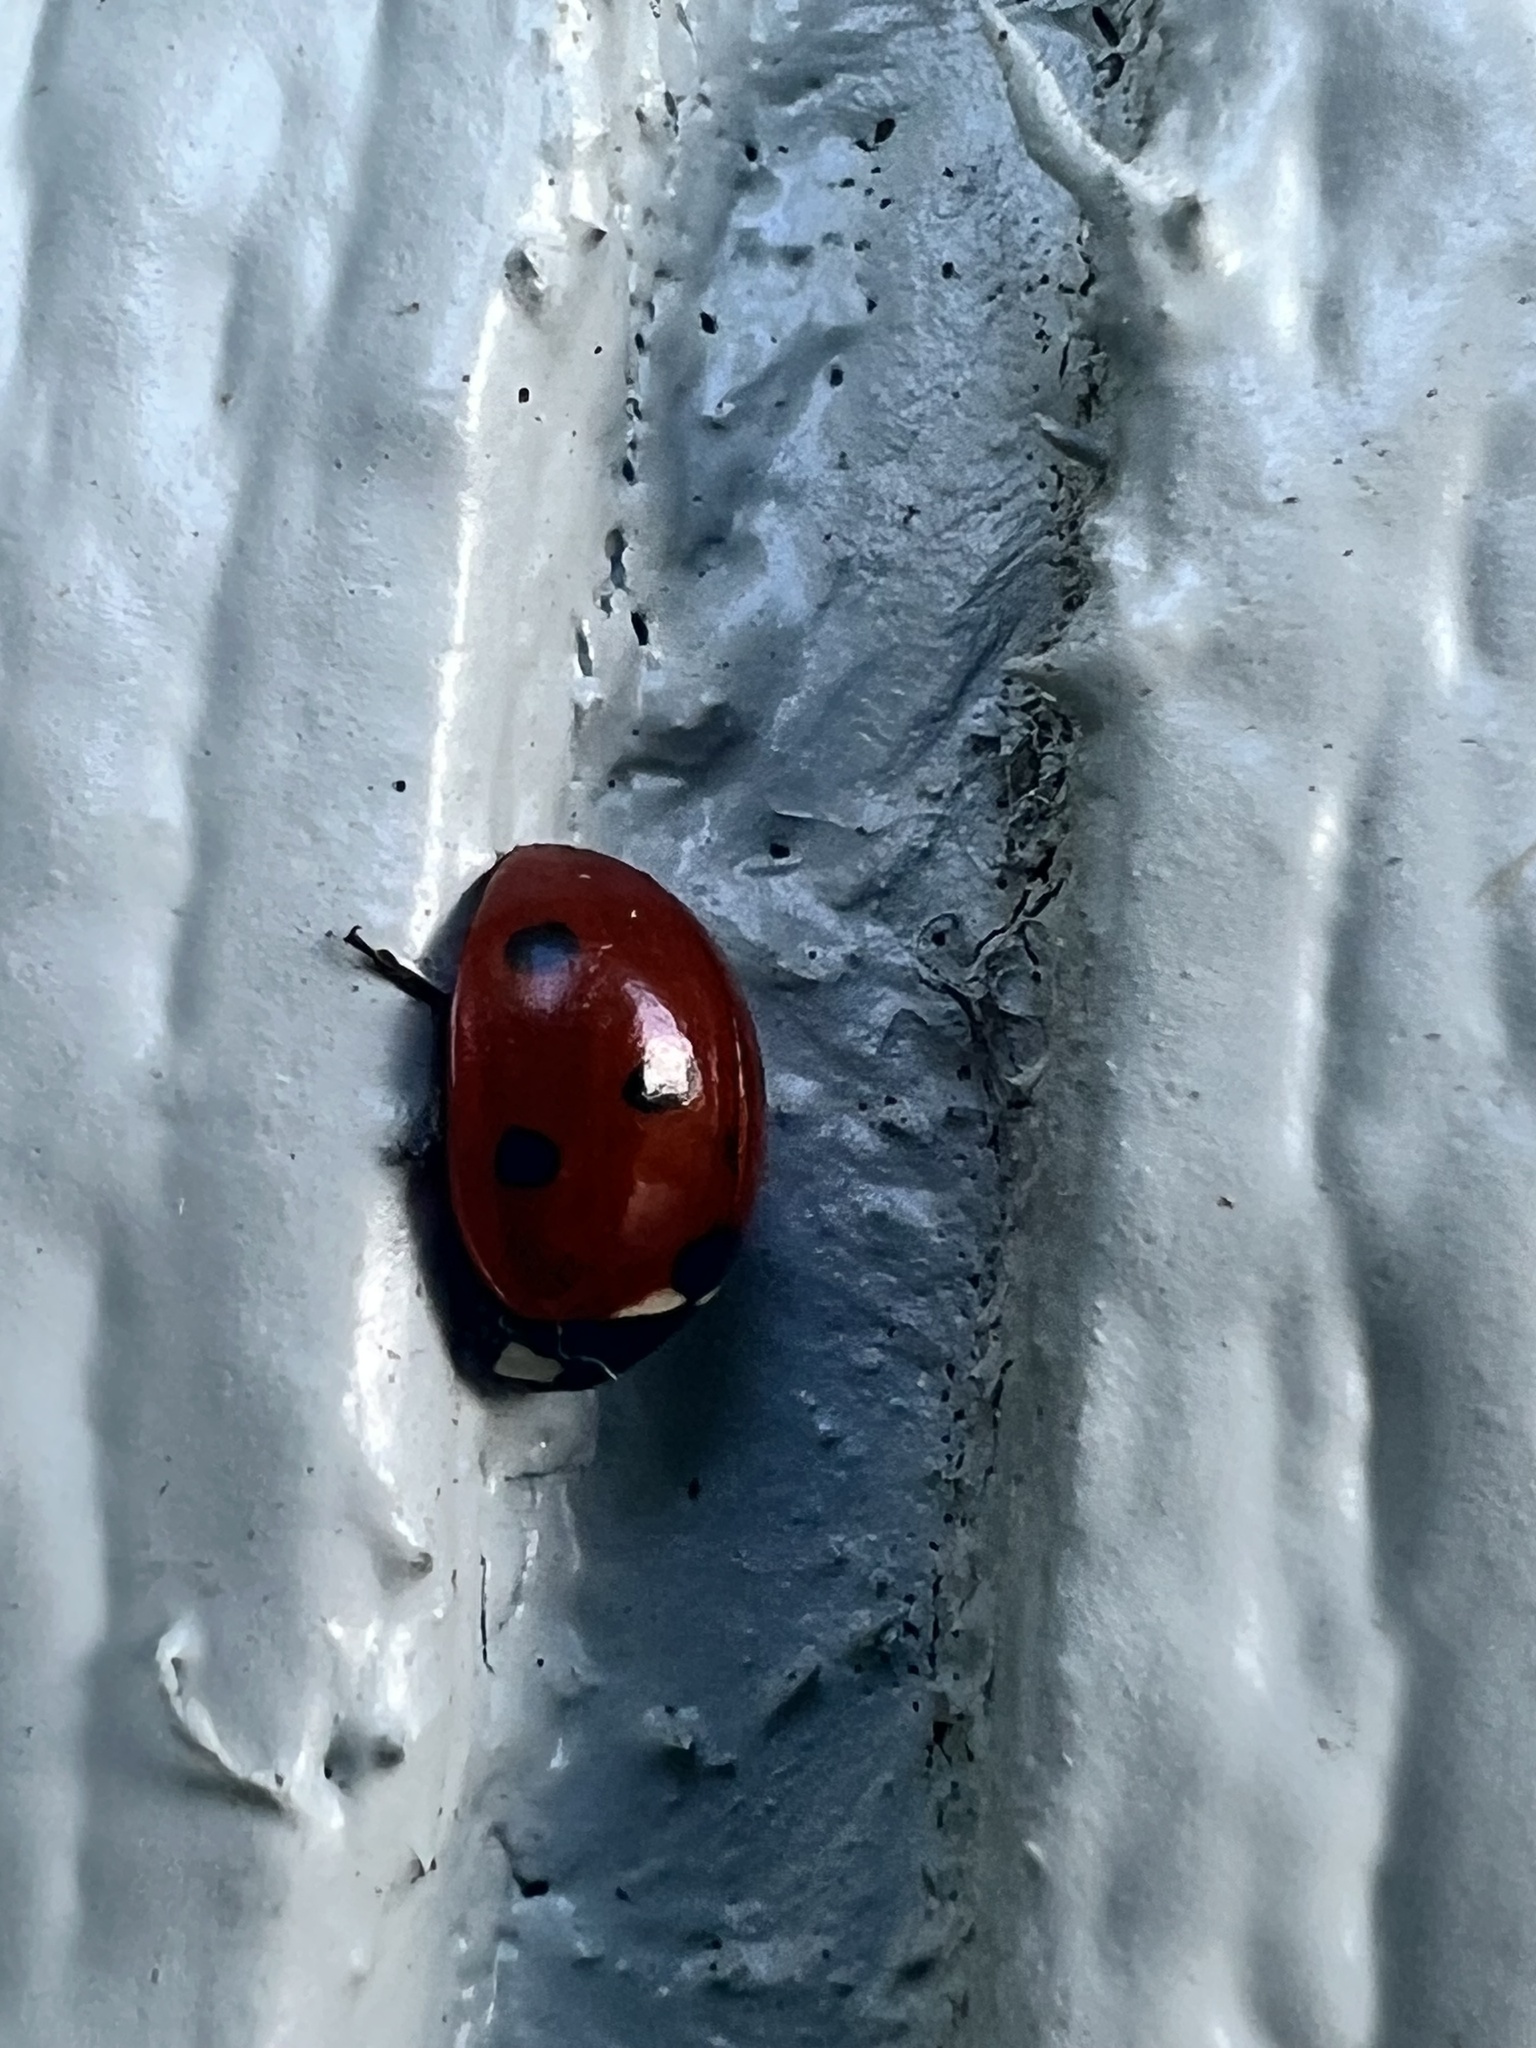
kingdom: Animalia
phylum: Arthropoda
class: Insecta
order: Coleoptera
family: Coccinellidae
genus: Coccinella
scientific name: Coccinella septempunctata
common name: Sevenspotted lady beetle
